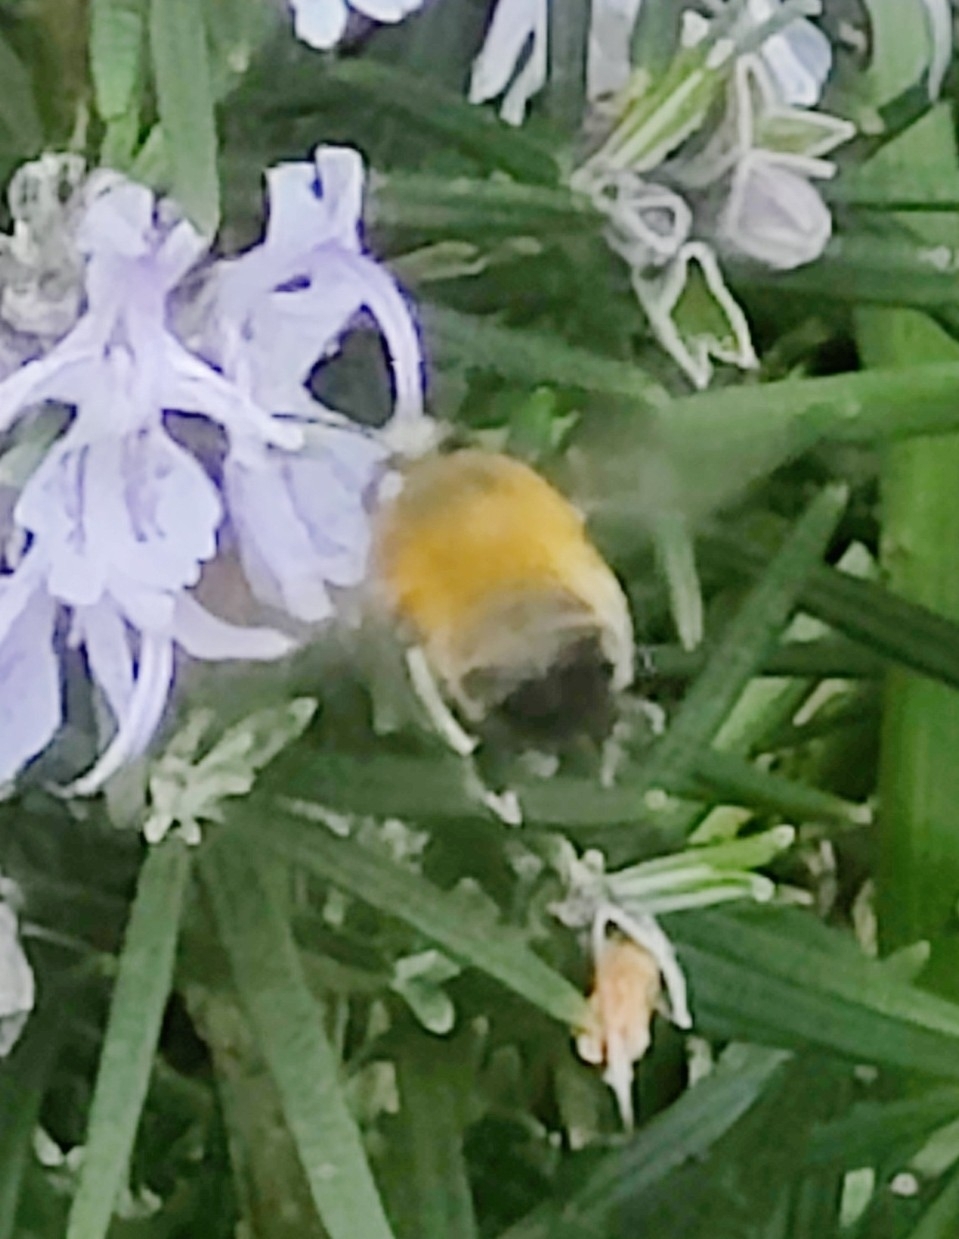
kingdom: Animalia
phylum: Arthropoda
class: Insecta
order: Hymenoptera
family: Apidae
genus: Anthophora
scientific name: Anthophora plumipes
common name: Hairy-footed flower bee
